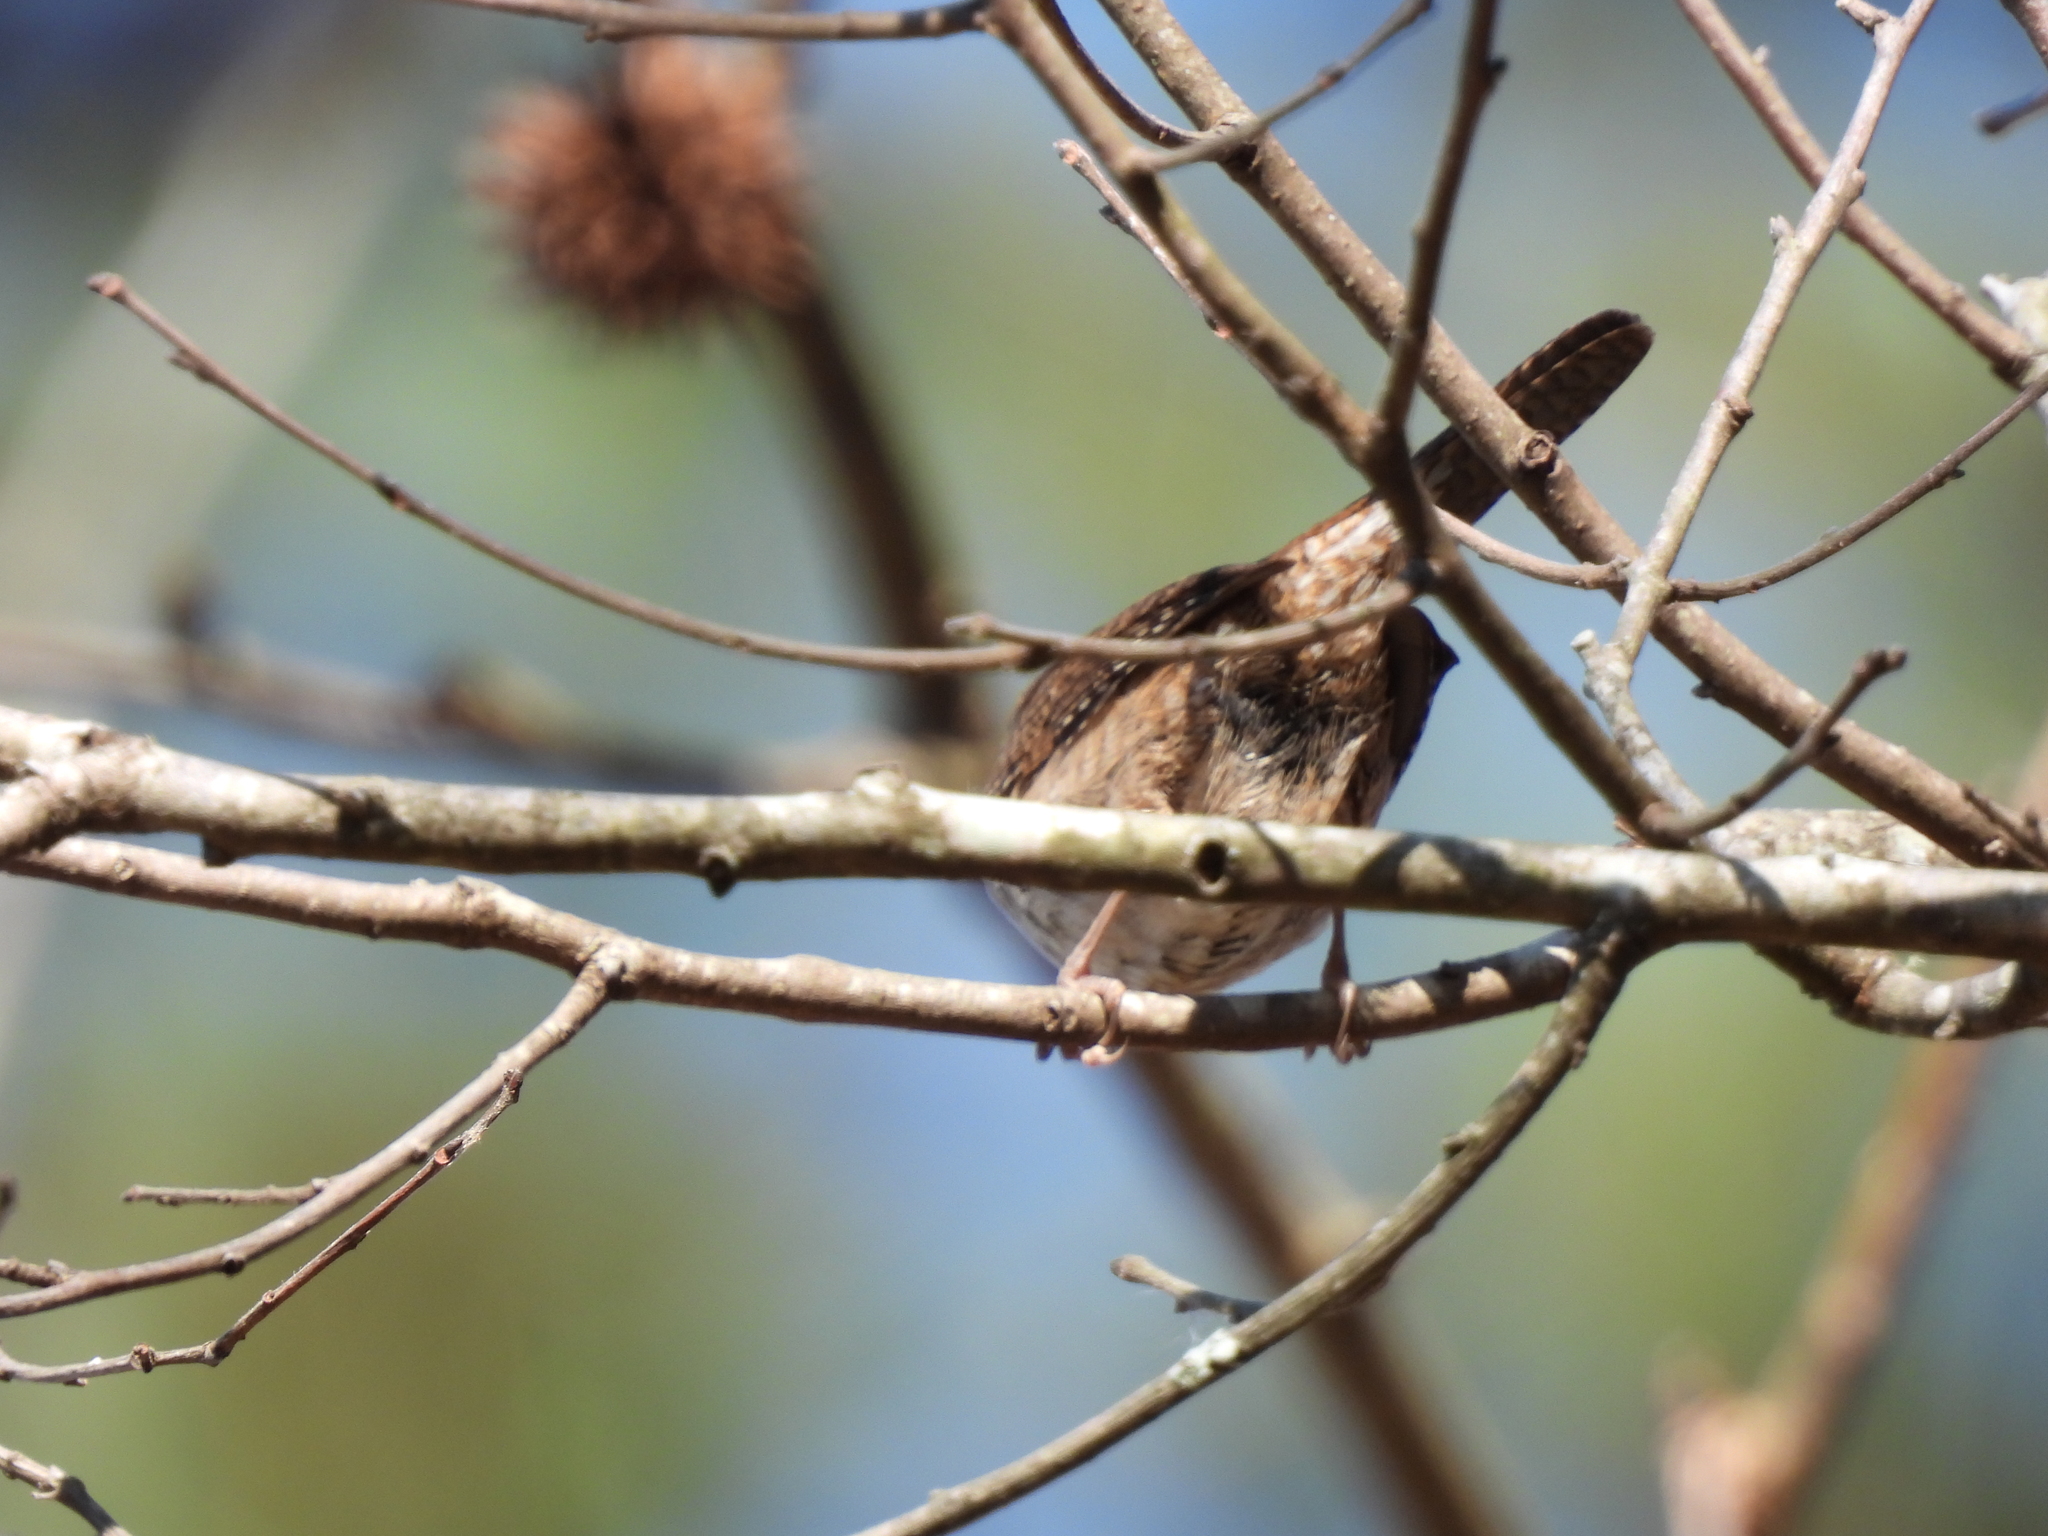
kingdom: Animalia
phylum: Chordata
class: Aves
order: Passeriformes
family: Troglodytidae
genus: Troglodytes
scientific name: Troglodytes aedon
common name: House wren
